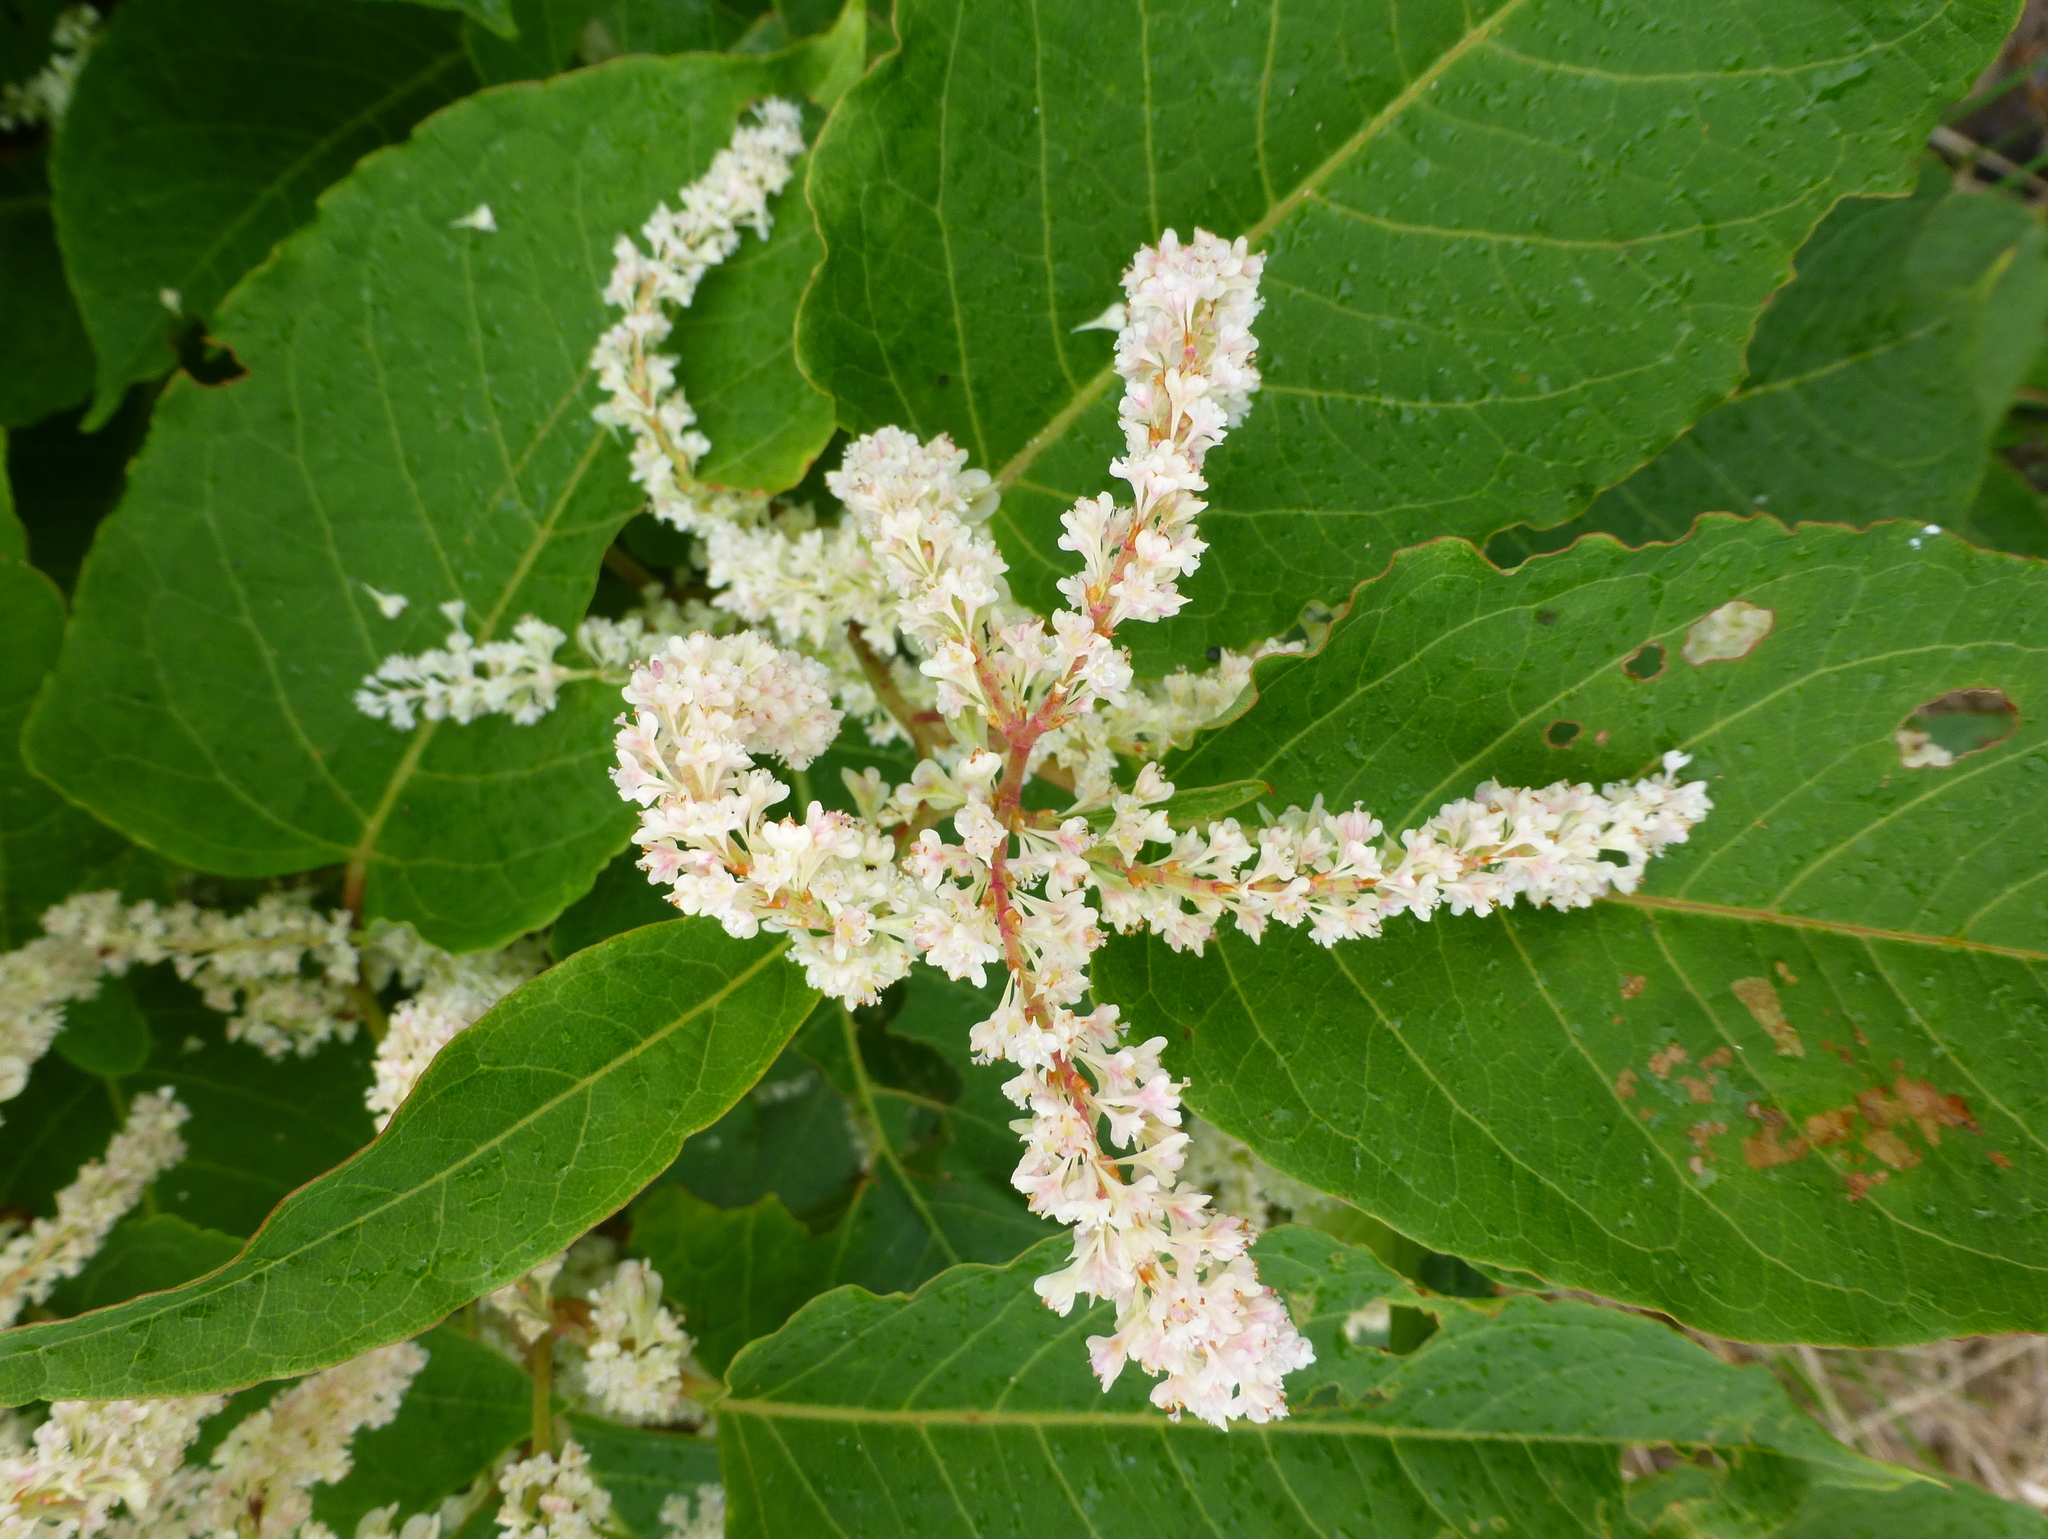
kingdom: Plantae
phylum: Tracheophyta
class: Magnoliopsida
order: Caryophyllales
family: Polygonaceae
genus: Reynoutria
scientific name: Reynoutria japonica
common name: Japanese knotweed
